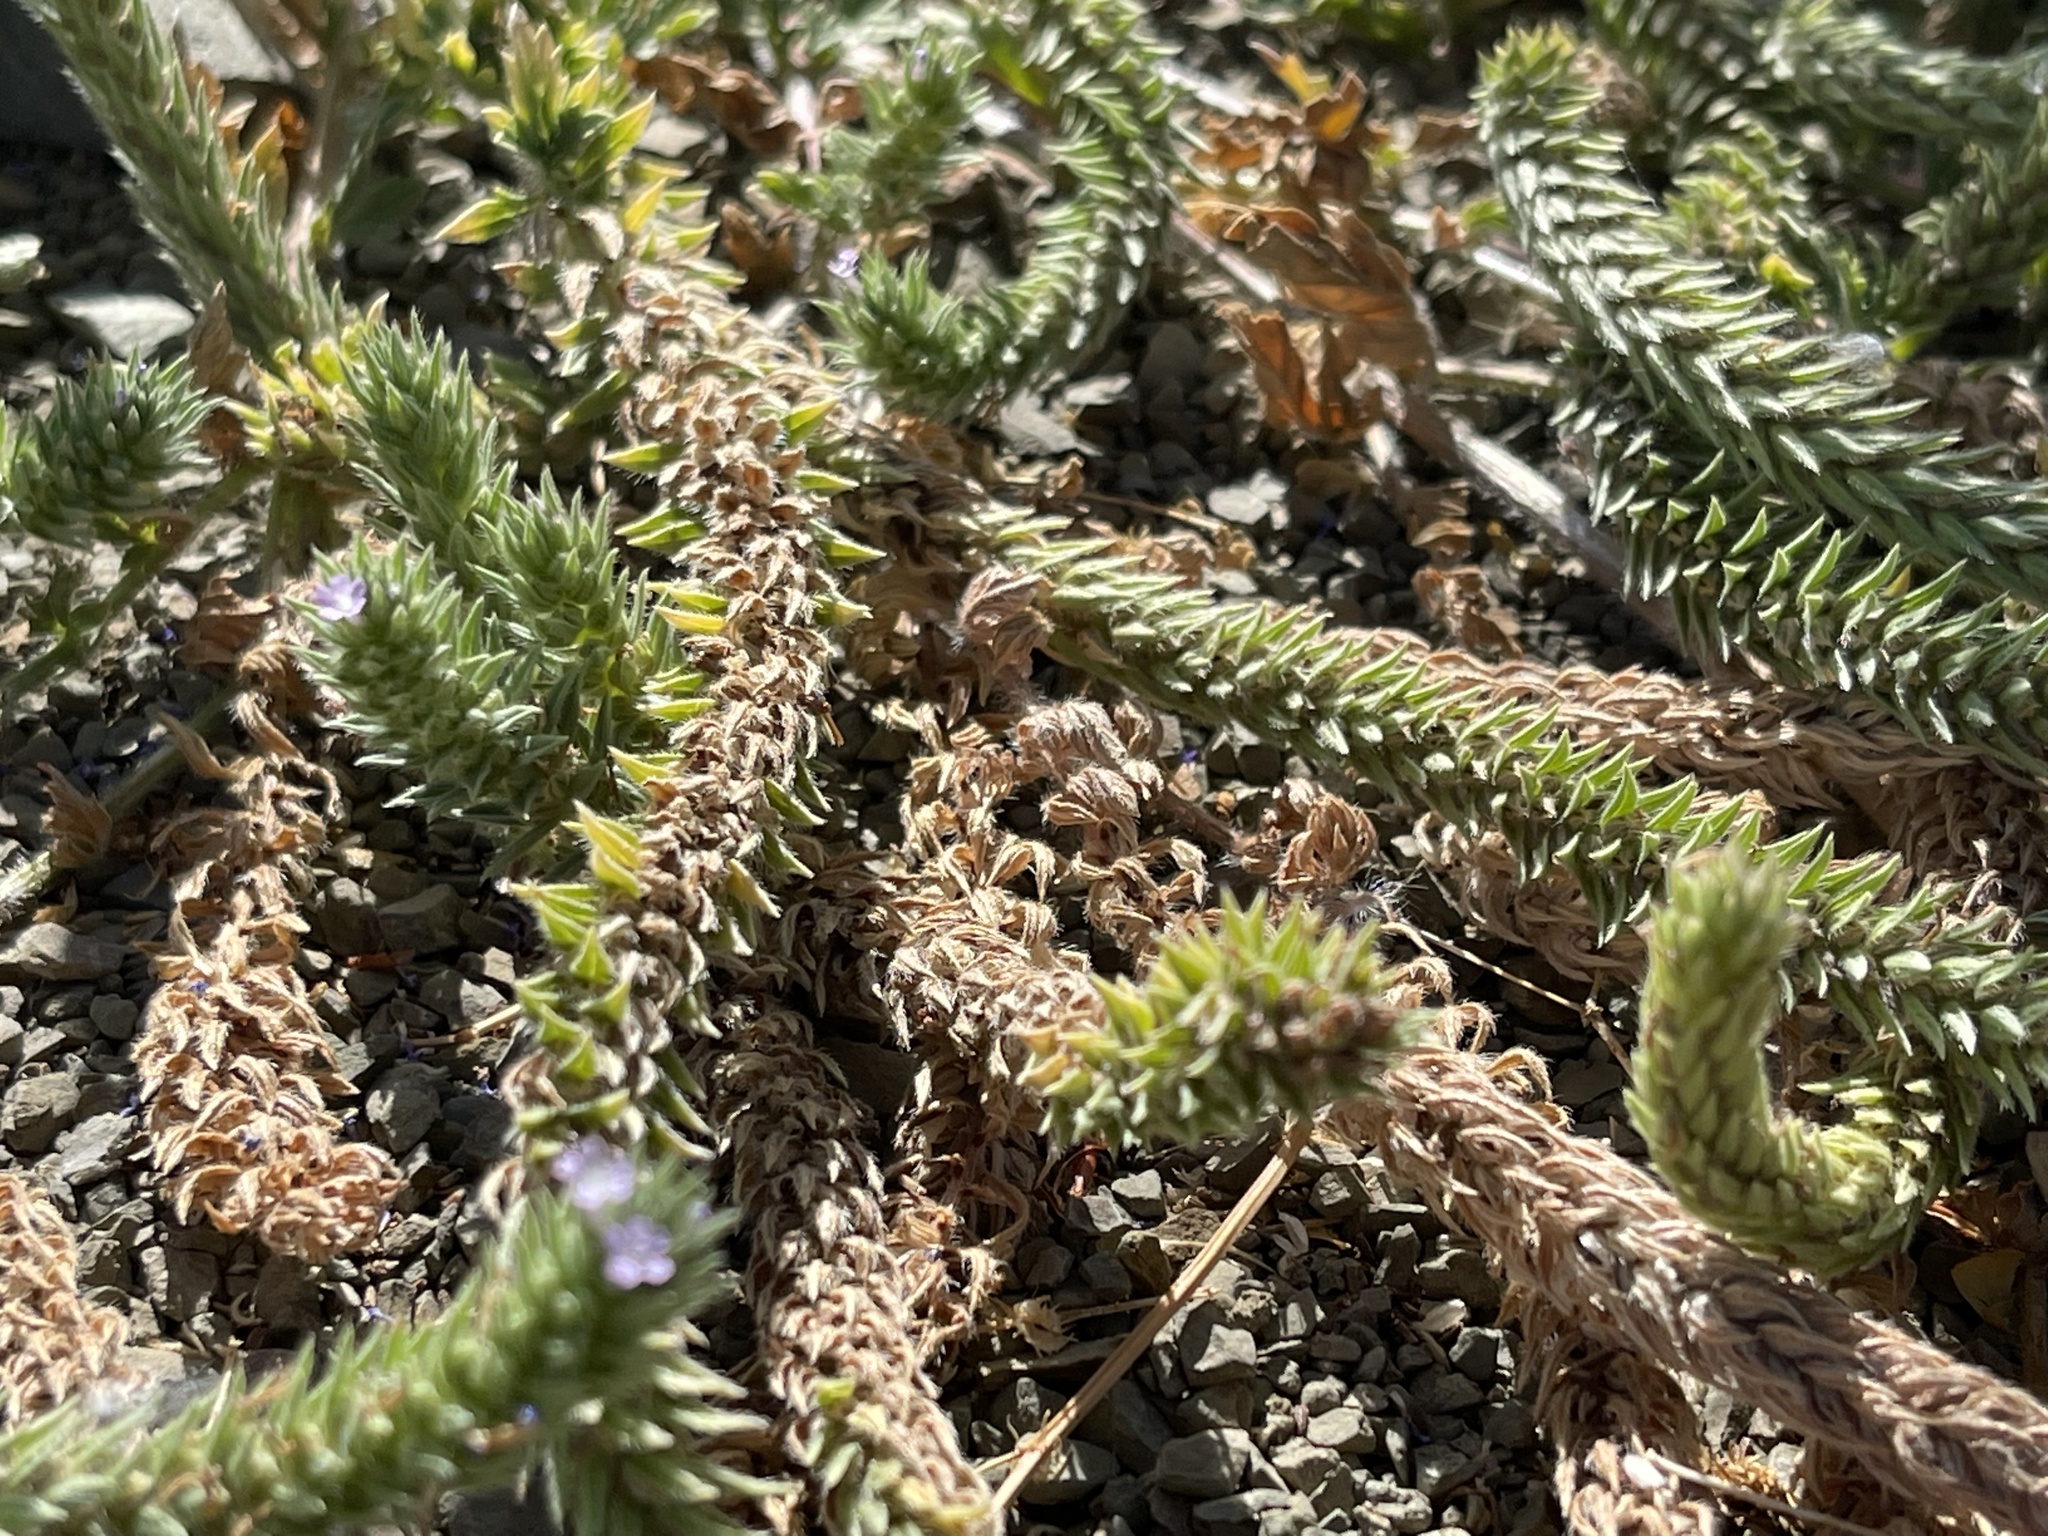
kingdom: Plantae
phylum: Tracheophyta
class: Magnoliopsida
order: Lamiales
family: Verbenaceae
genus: Verbena
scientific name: Verbena bracteata
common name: Bracted vervain
